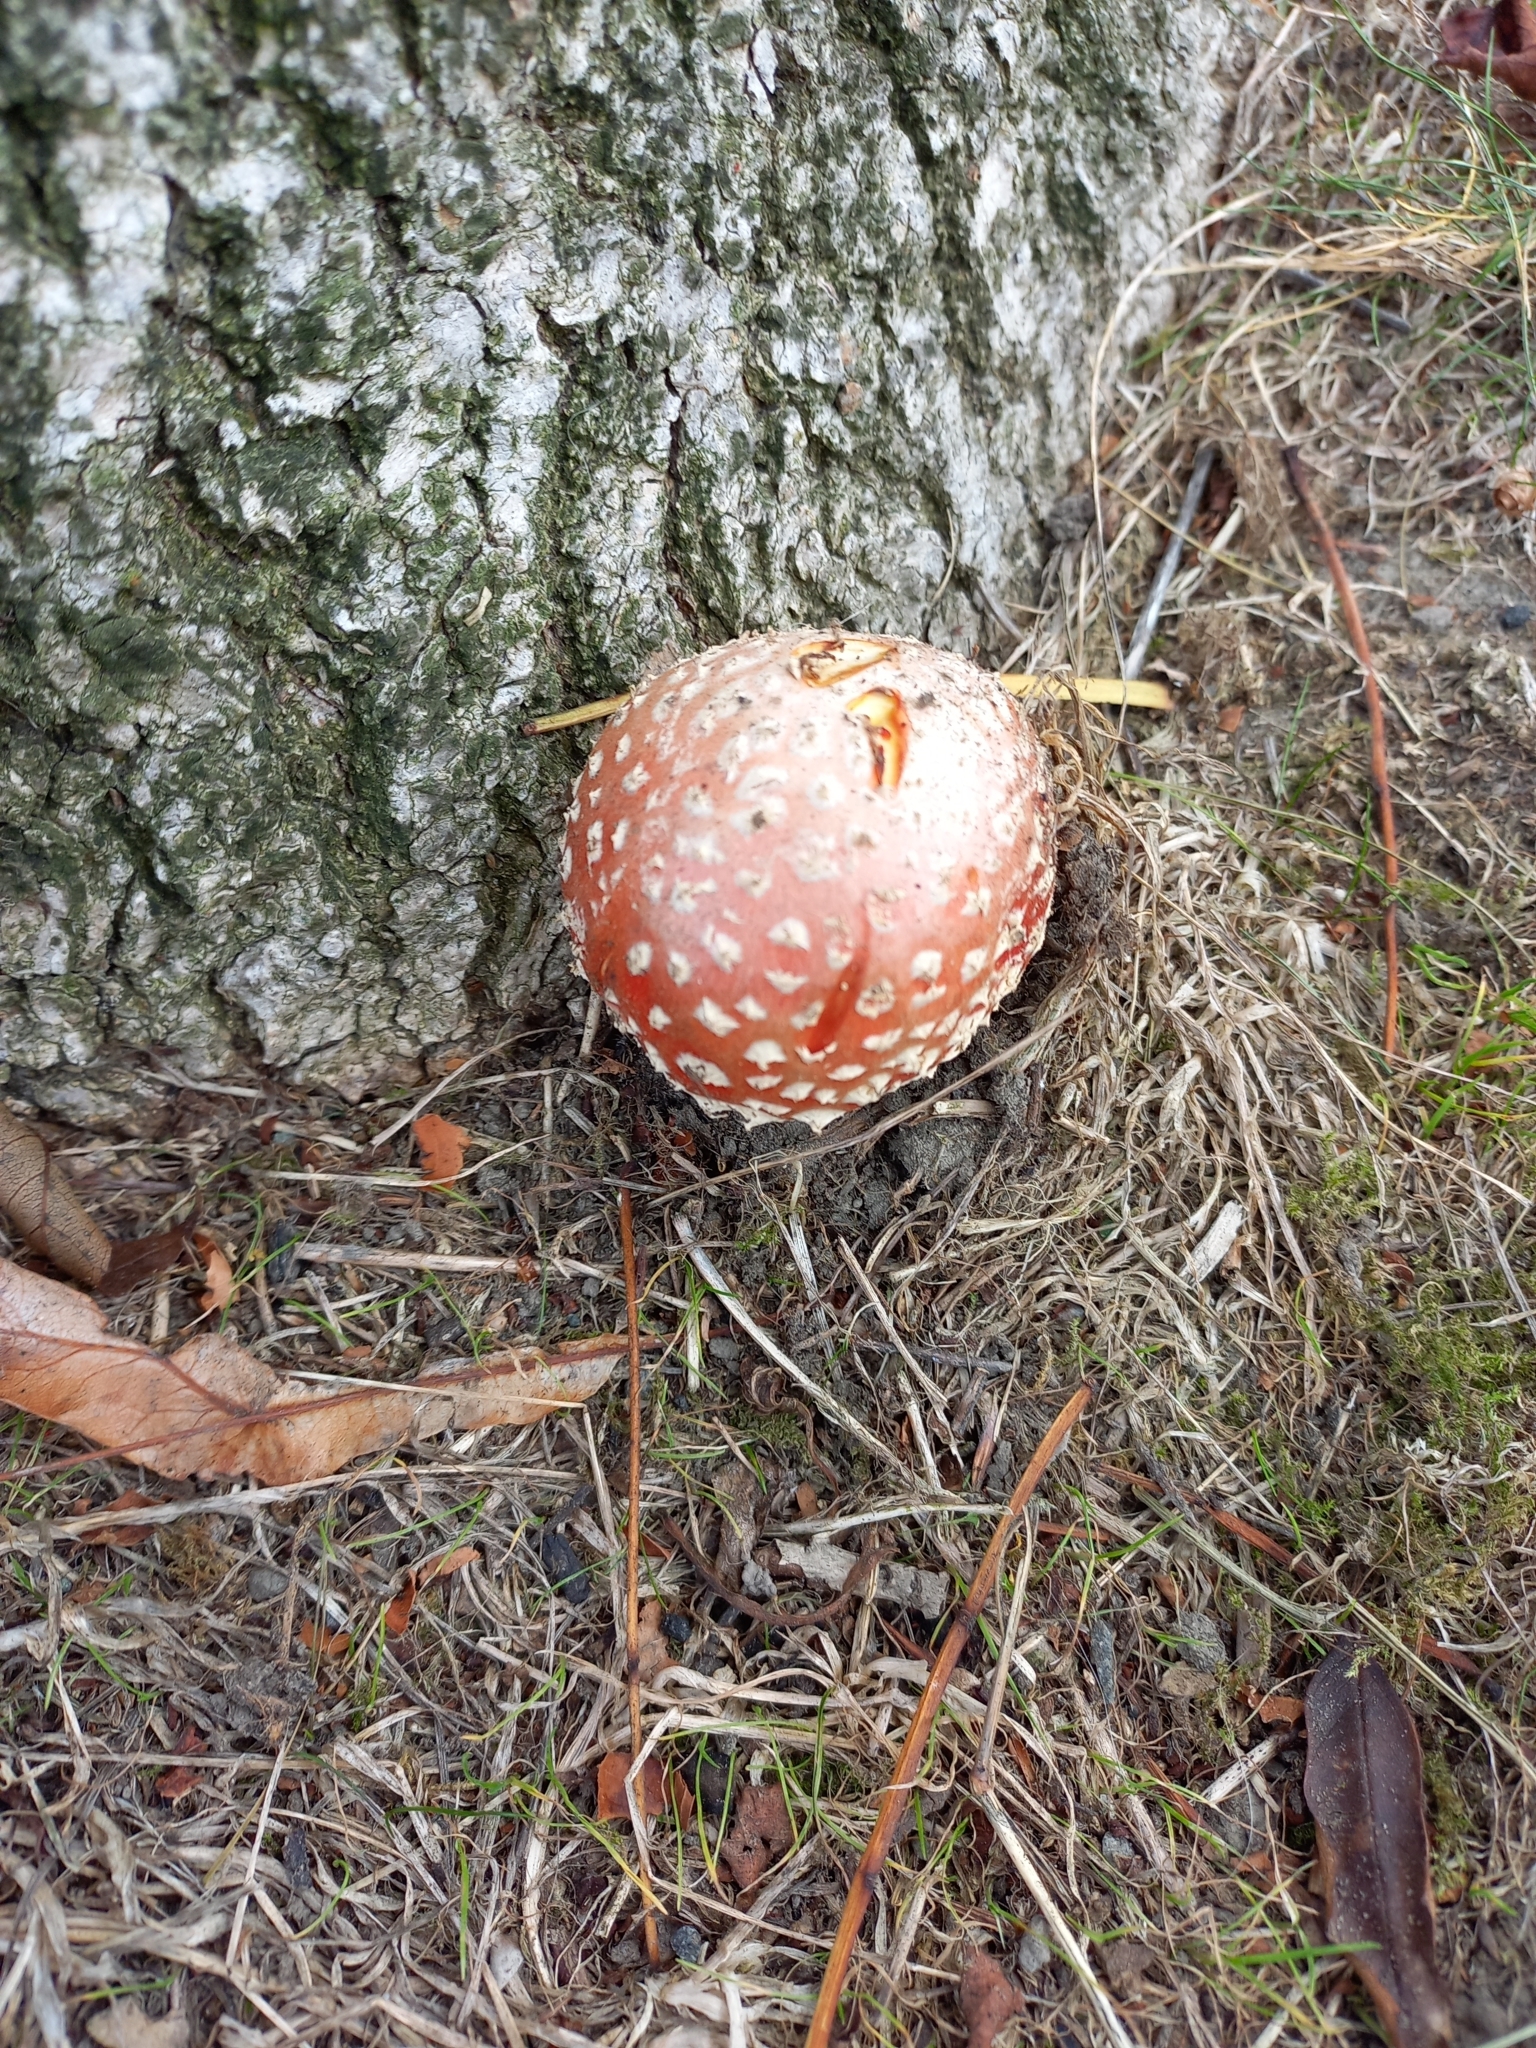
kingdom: Fungi
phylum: Basidiomycota
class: Agaricomycetes
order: Agaricales
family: Amanitaceae
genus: Amanita
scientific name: Amanita muscaria
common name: Fly agaric
